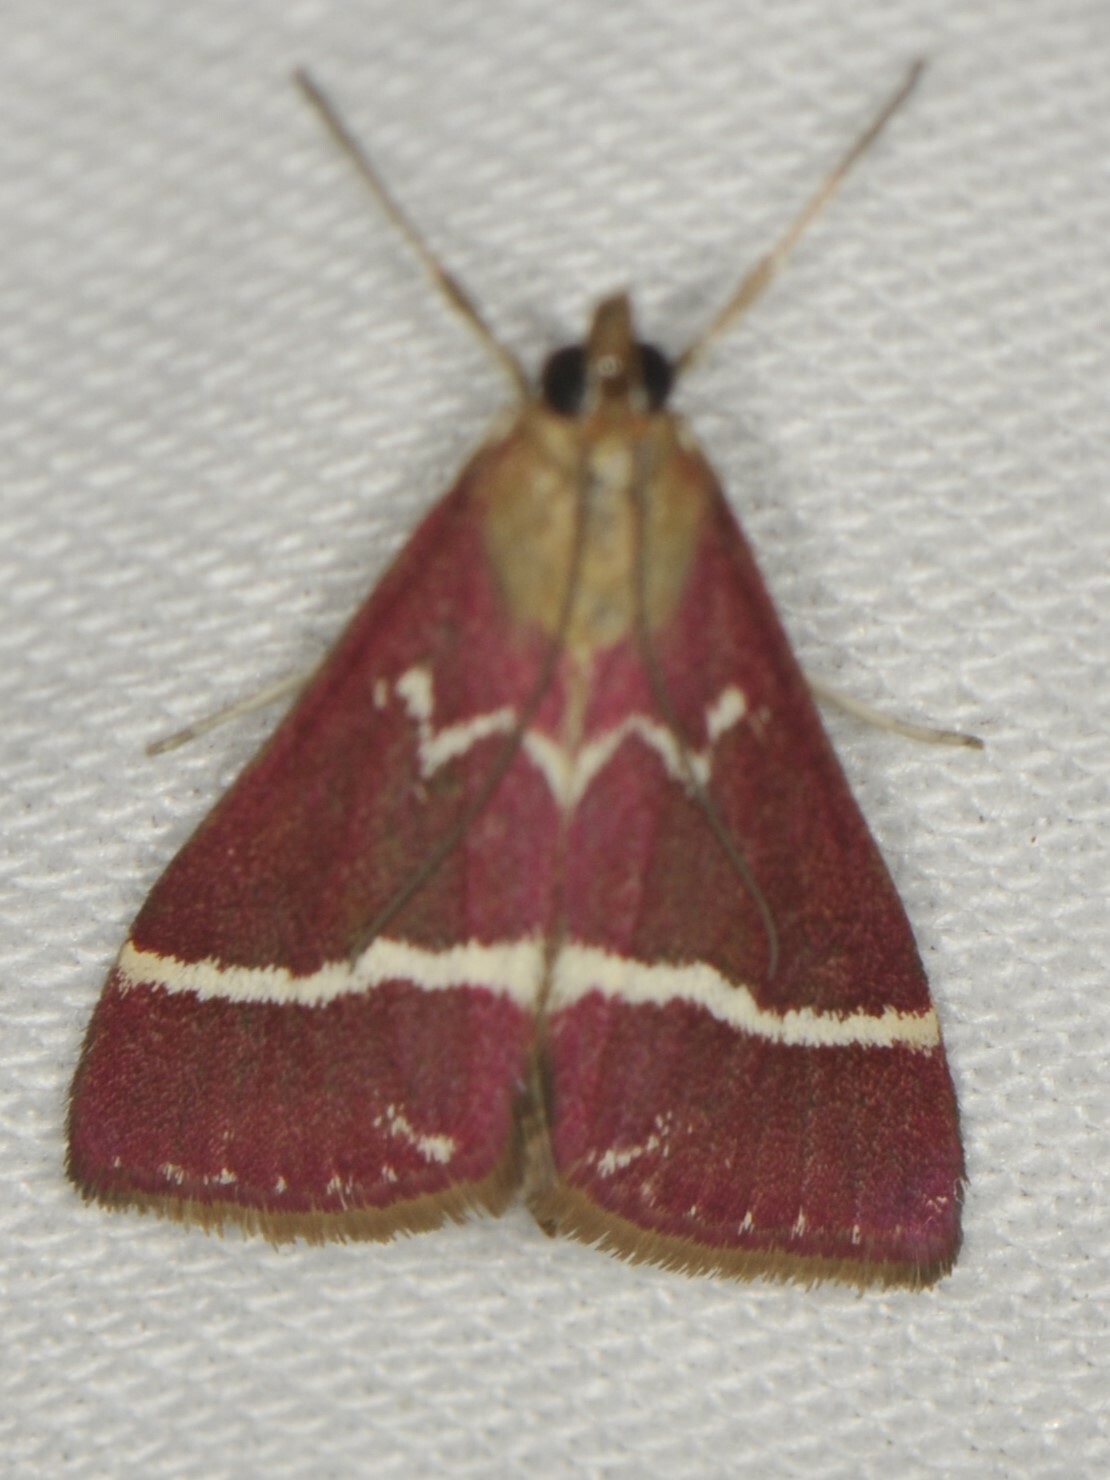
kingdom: Animalia
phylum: Arthropoda
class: Insecta
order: Lepidoptera
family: Crambidae
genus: Pyrausta
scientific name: Pyrausta volupialis
